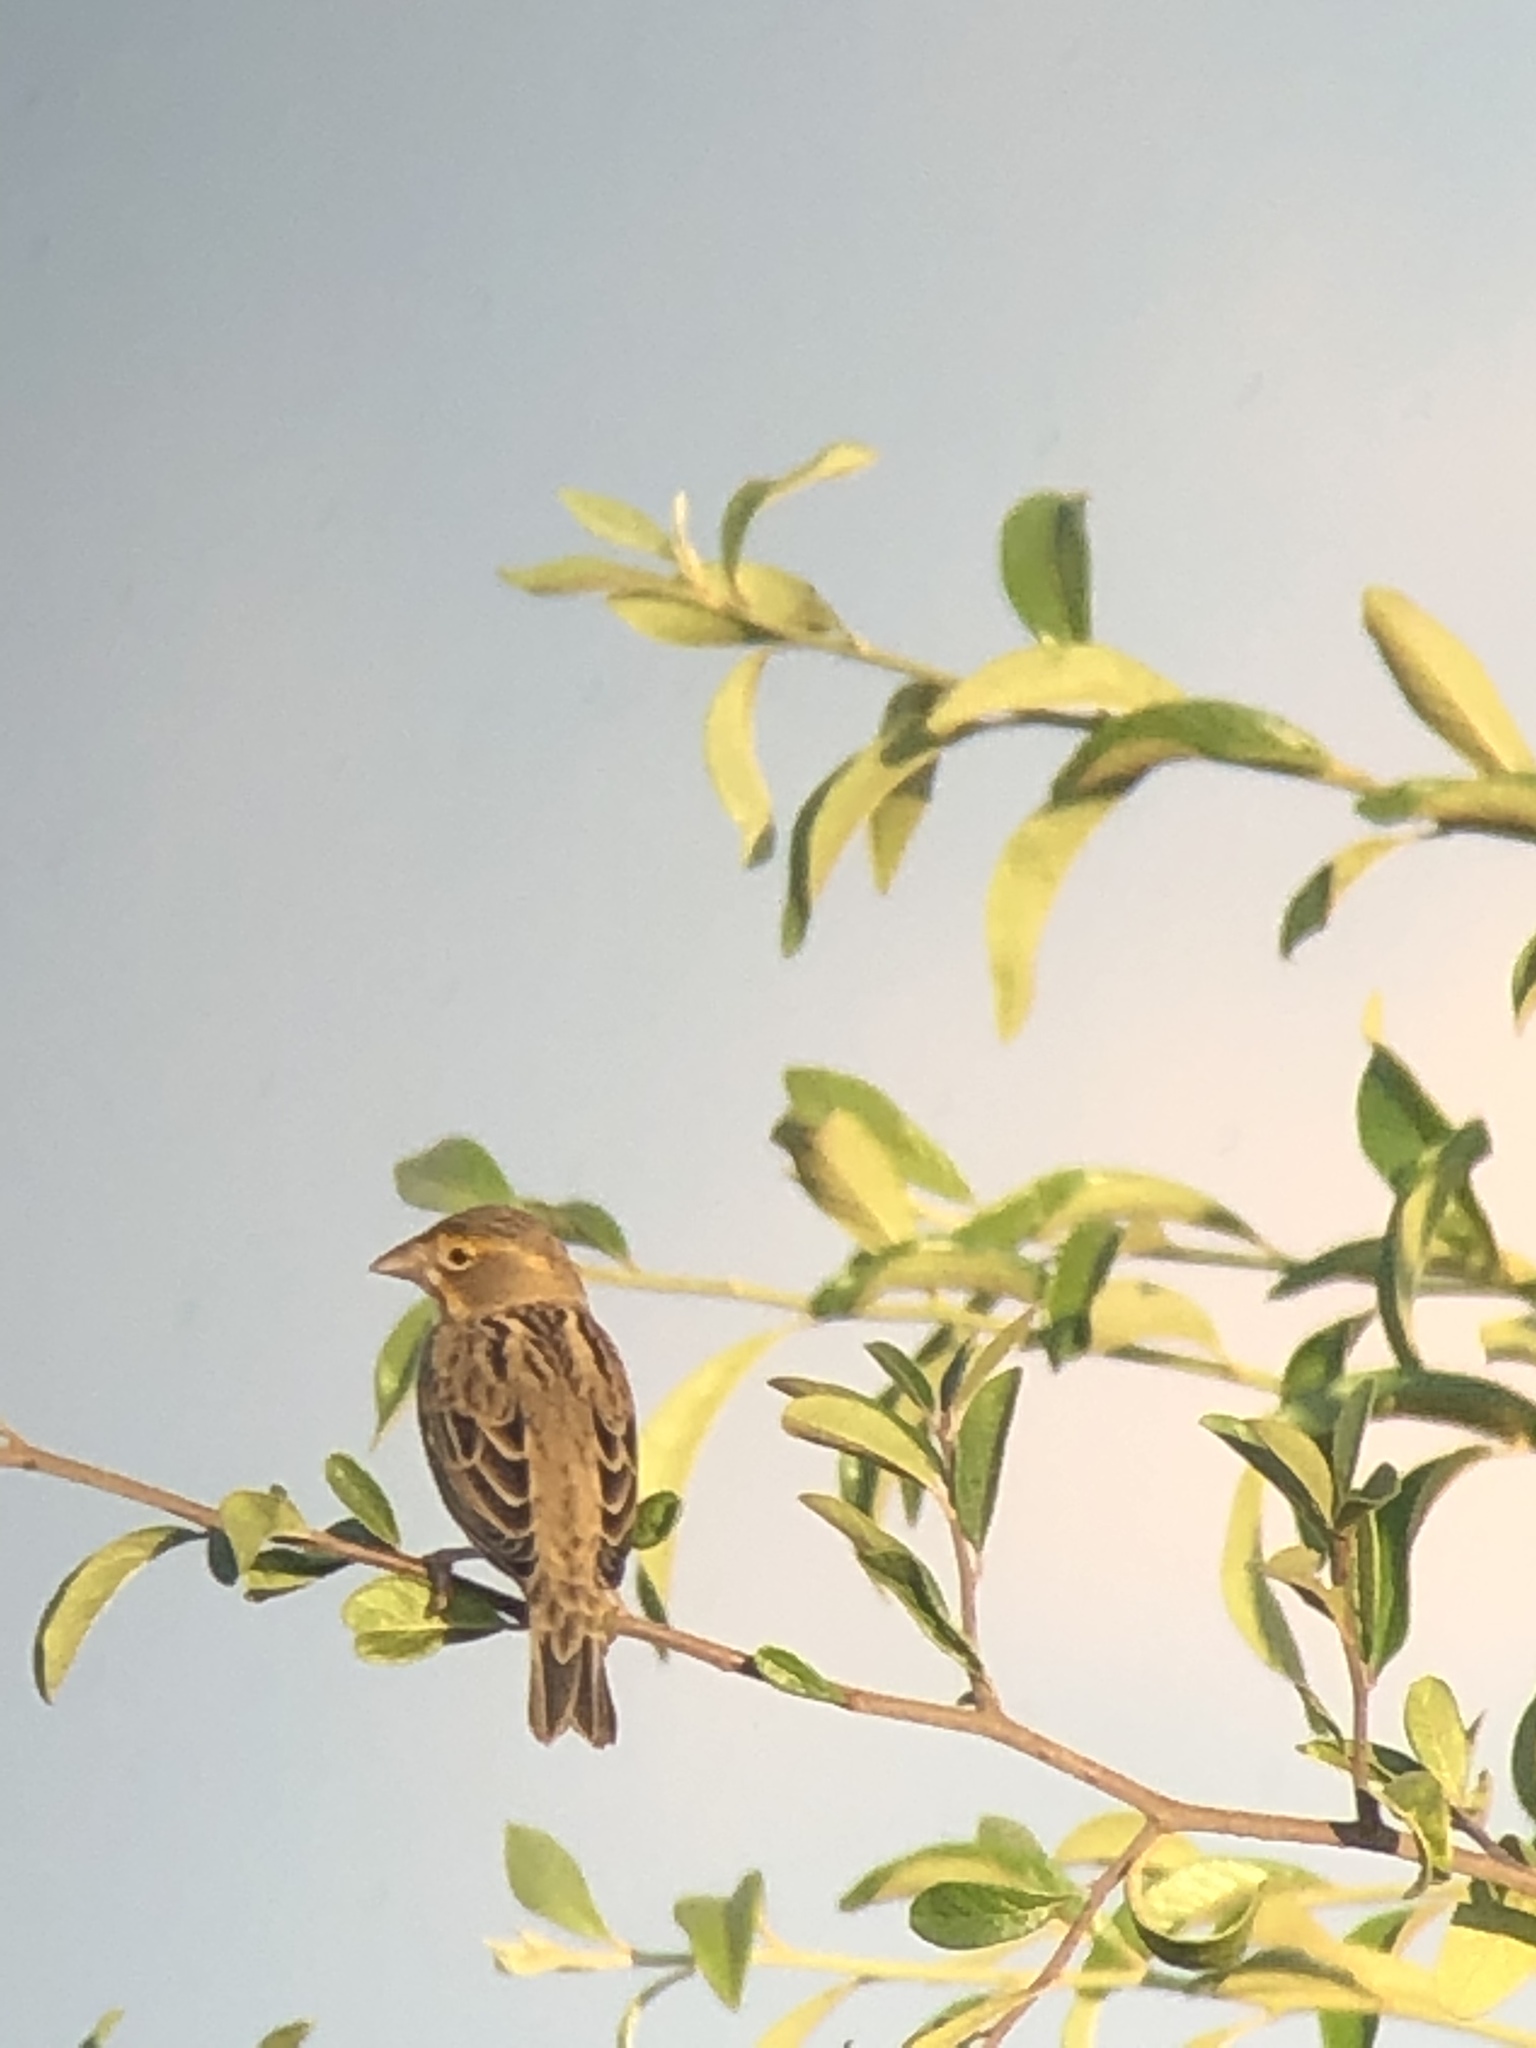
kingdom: Animalia
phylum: Chordata
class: Aves
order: Passeriformes
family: Cardinalidae
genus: Spiza
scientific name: Spiza americana
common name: Dickcissel
